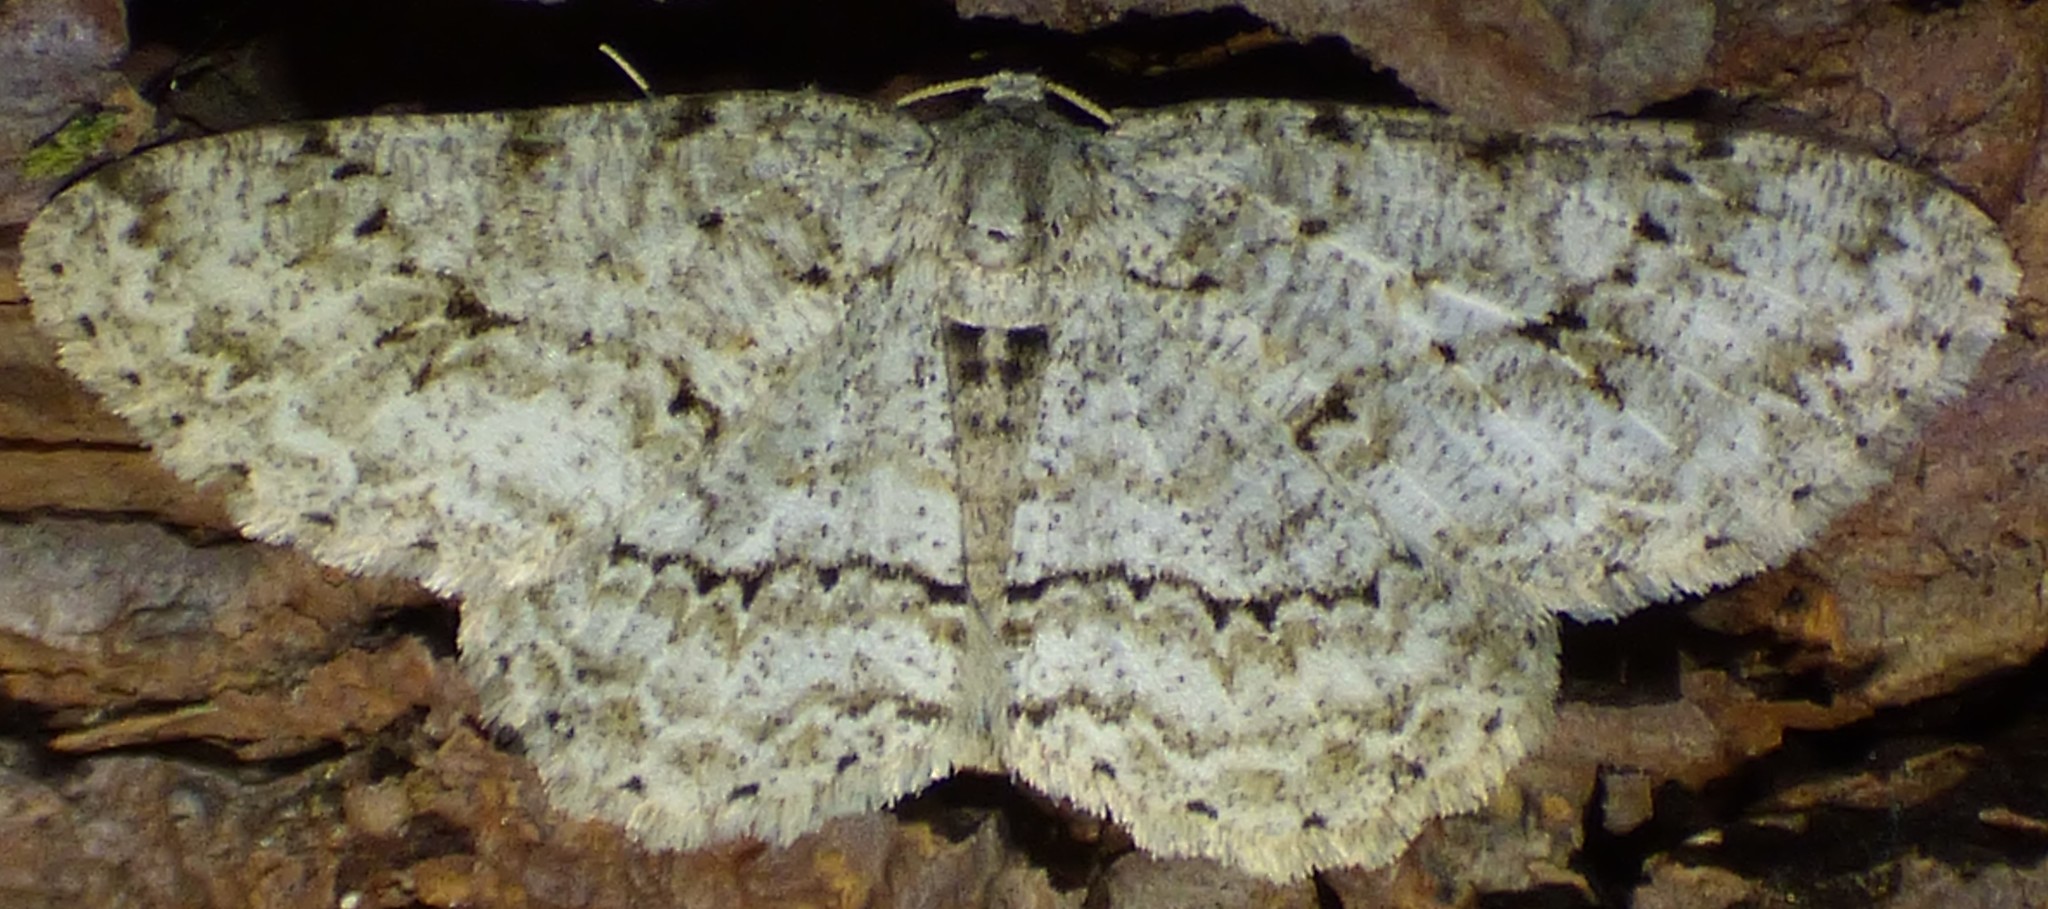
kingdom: Animalia
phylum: Arthropoda
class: Insecta
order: Lepidoptera
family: Geometridae
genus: Ectropis
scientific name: Ectropis crepuscularia
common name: Engrailed
